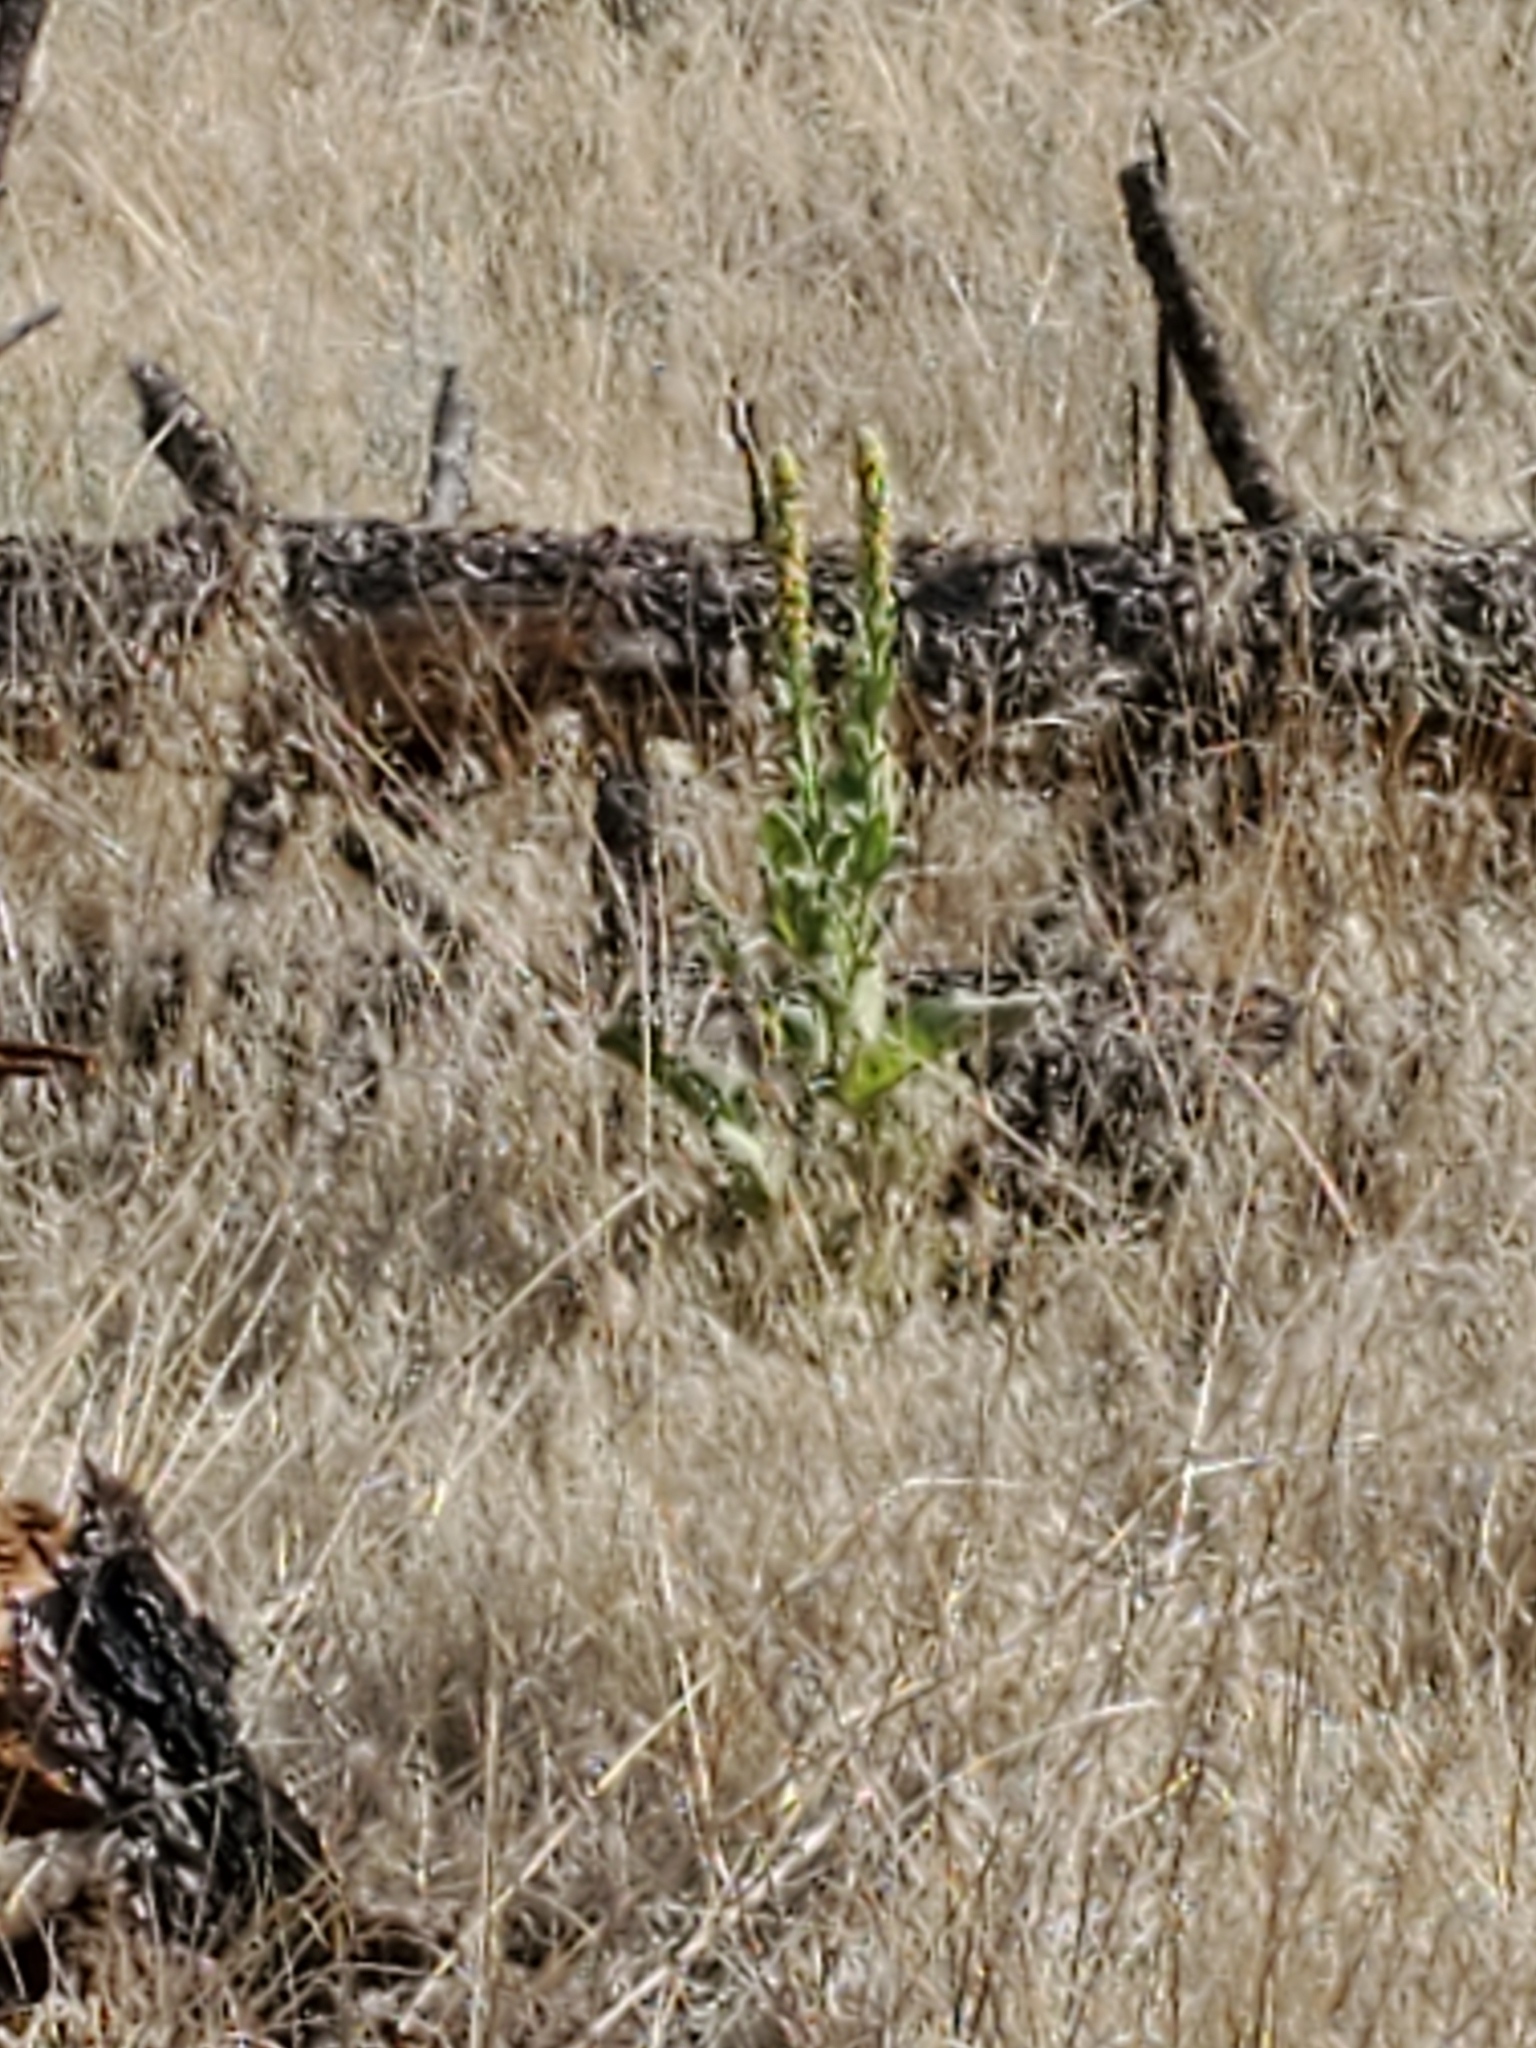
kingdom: Plantae
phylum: Tracheophyta
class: Magnoliopsida
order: Lamiales
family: Scrophulariaceae
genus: Verbascum
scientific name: Verbascum thapsus
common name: Common mullein
